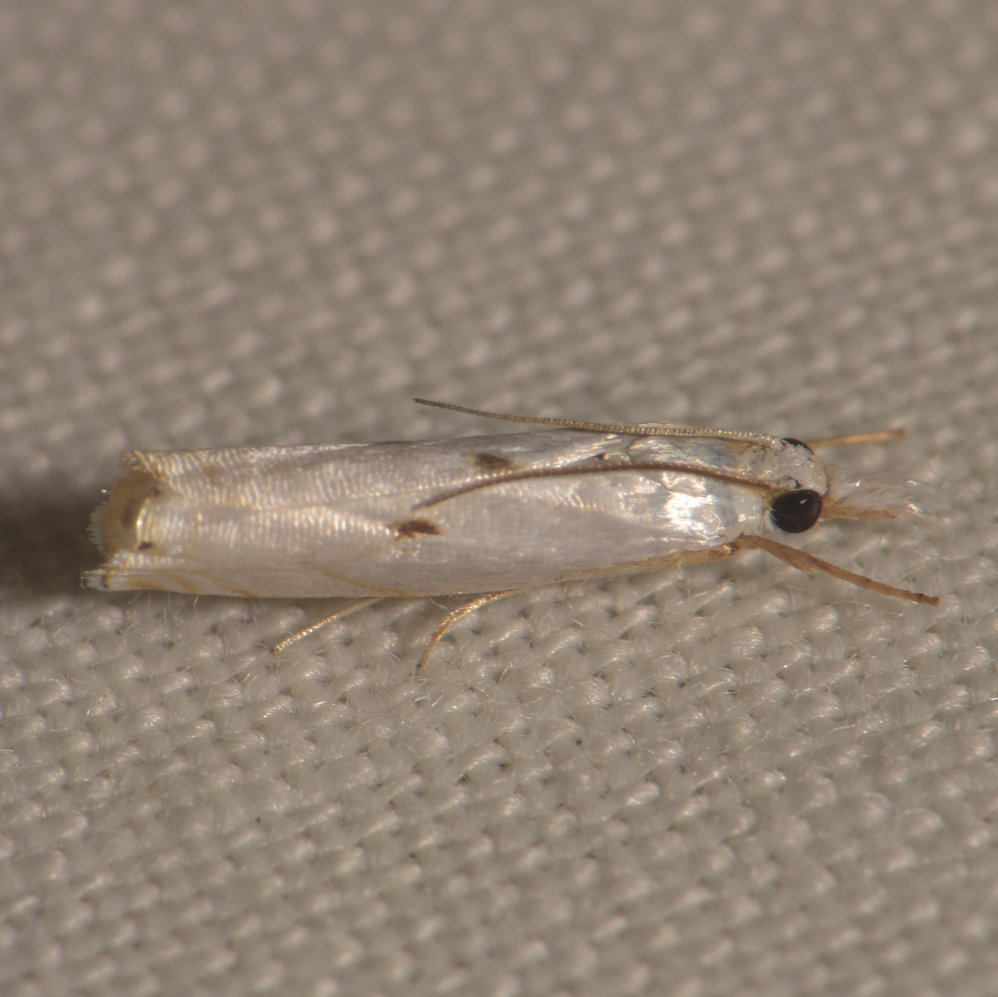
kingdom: Animalia
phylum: Arthropoda
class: Insecta
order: Lepidoptera
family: Crambidae
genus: Microcrambus
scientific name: Microcrambus biguttellus
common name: Gold-stripe grass-veneer moth
